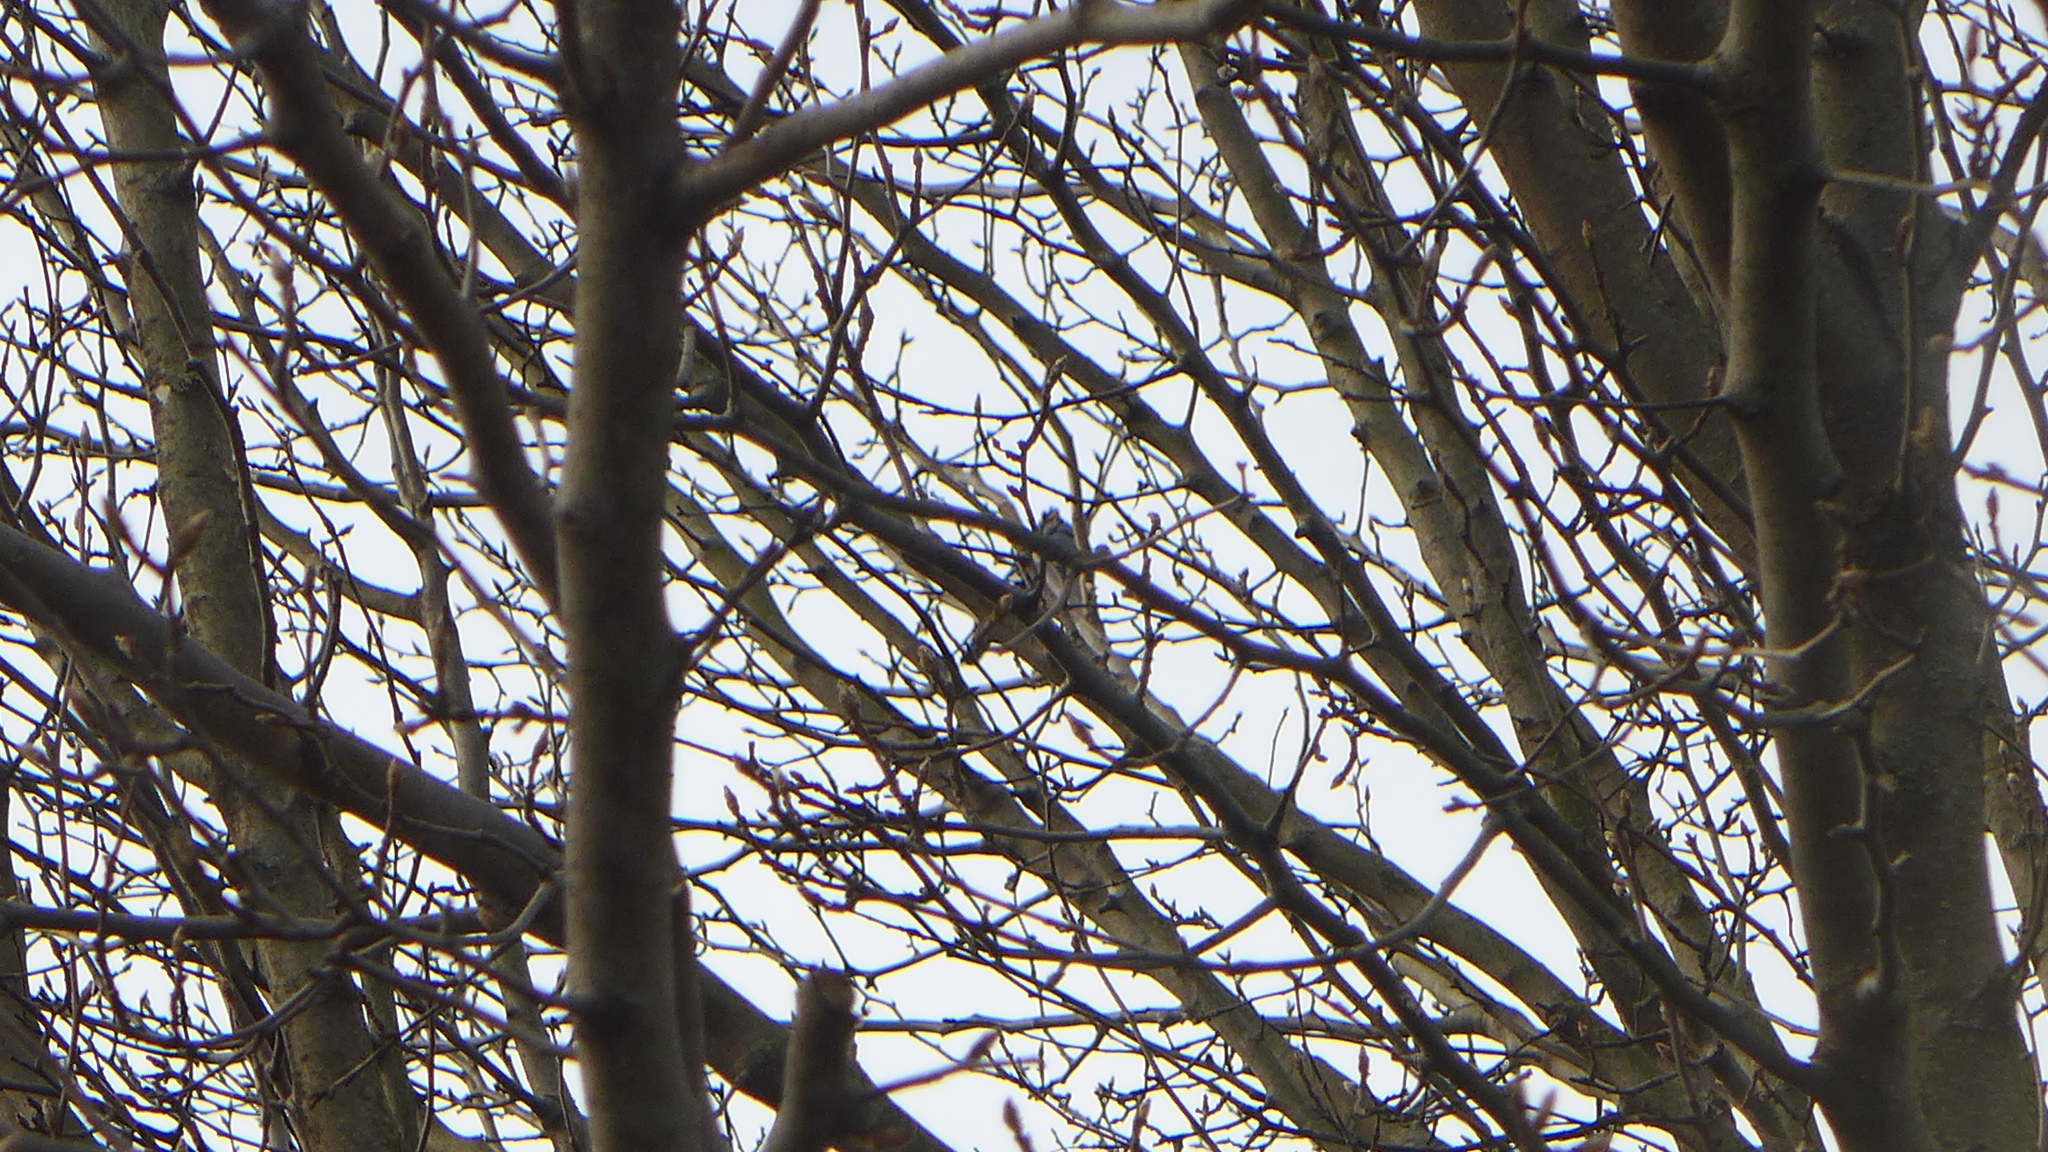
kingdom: Animalia
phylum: Chordata
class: Aves
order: Passeriformes
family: Corvidae
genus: Cyanocitta
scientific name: Cyanocitta cristata
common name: Blue jay
